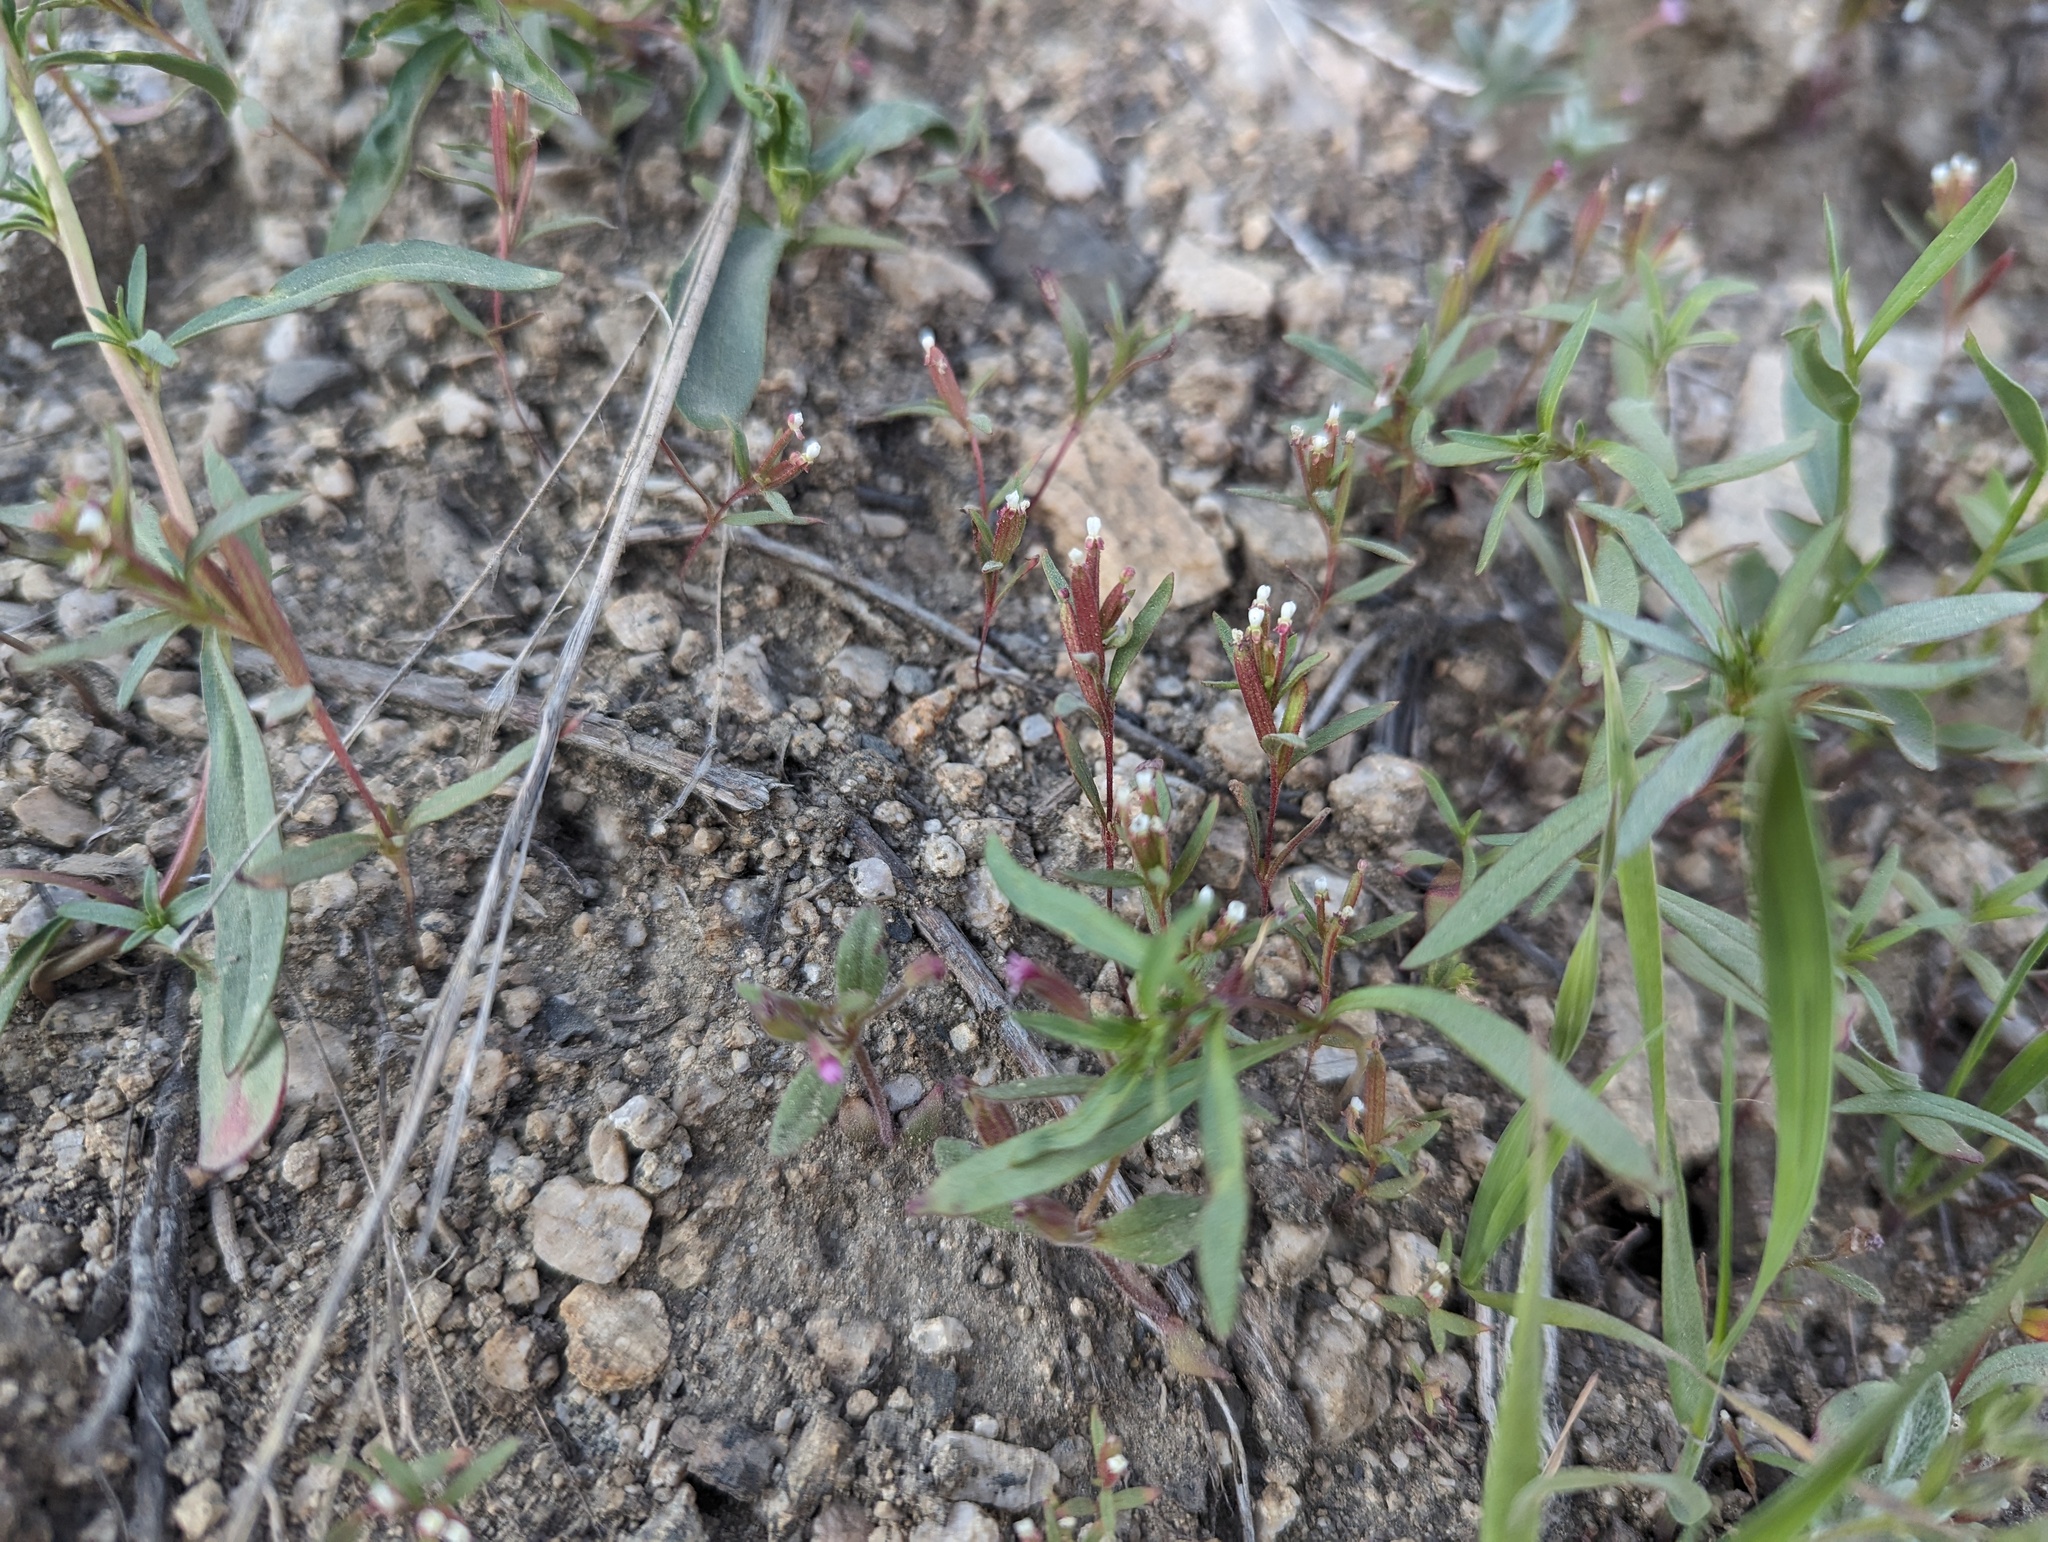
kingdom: Plantae
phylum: Tracheophyta
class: Magnoliopsida
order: Myrtales
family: Onagraceae
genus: Gayophytum
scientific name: Gayophytum humile
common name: Dwarf groundsmoke
